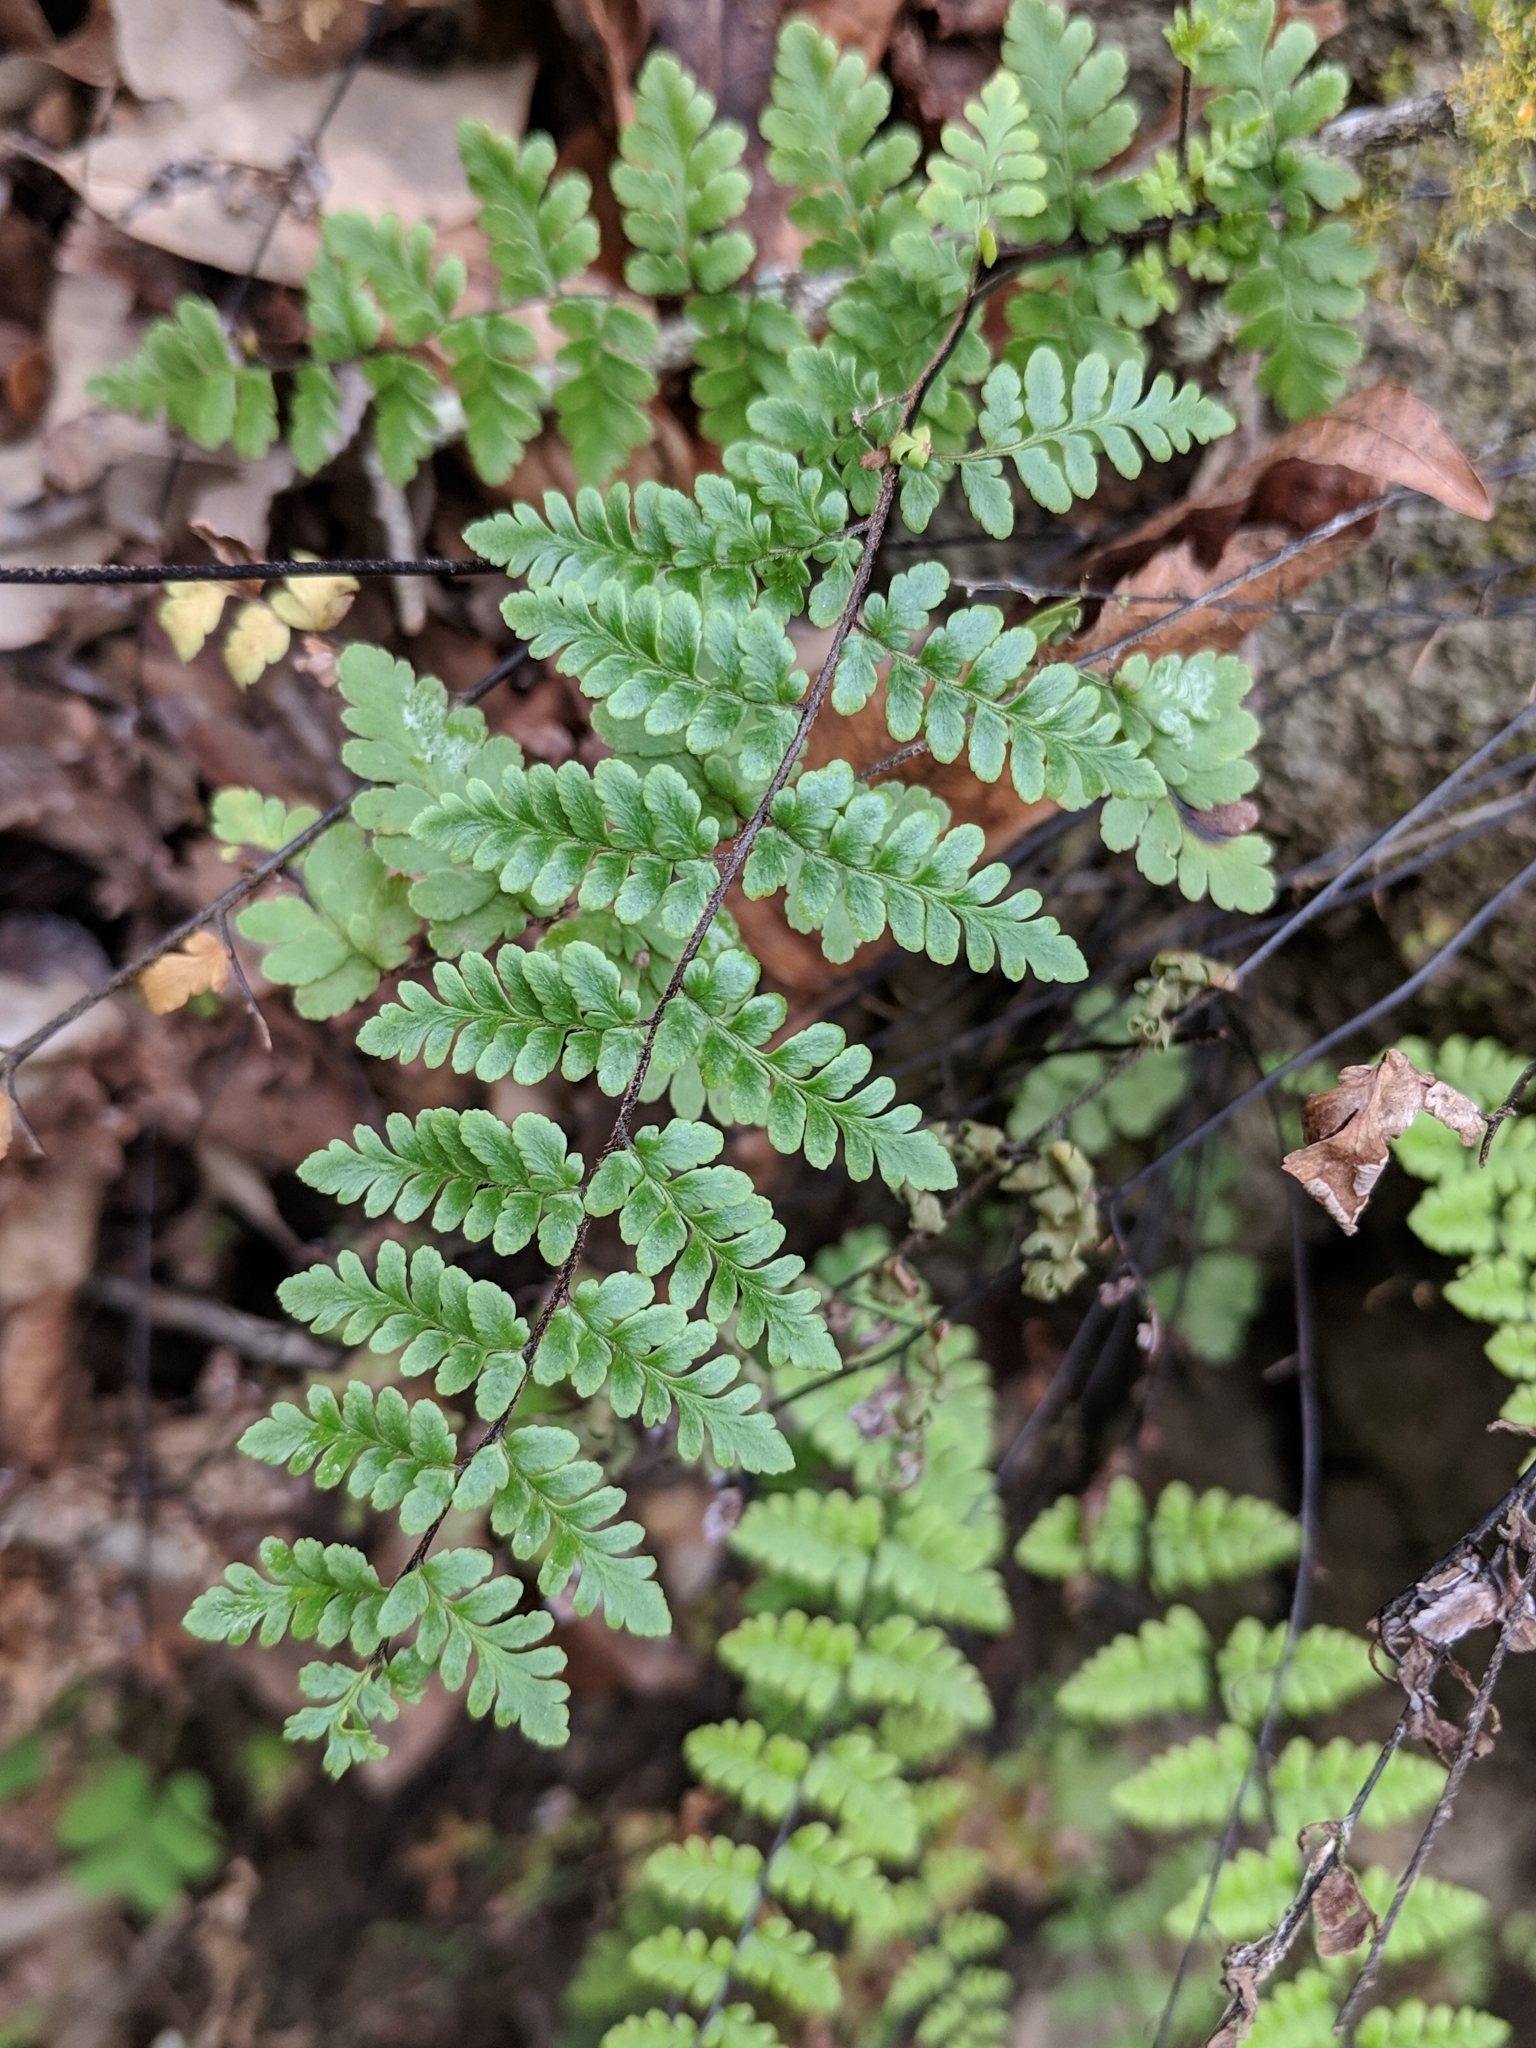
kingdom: Plantae
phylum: Tracheophyta
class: Polypodiopsida
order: Polypodiales
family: Pteridaceae
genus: Myriopteris
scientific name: Myriopteris alabamensis
